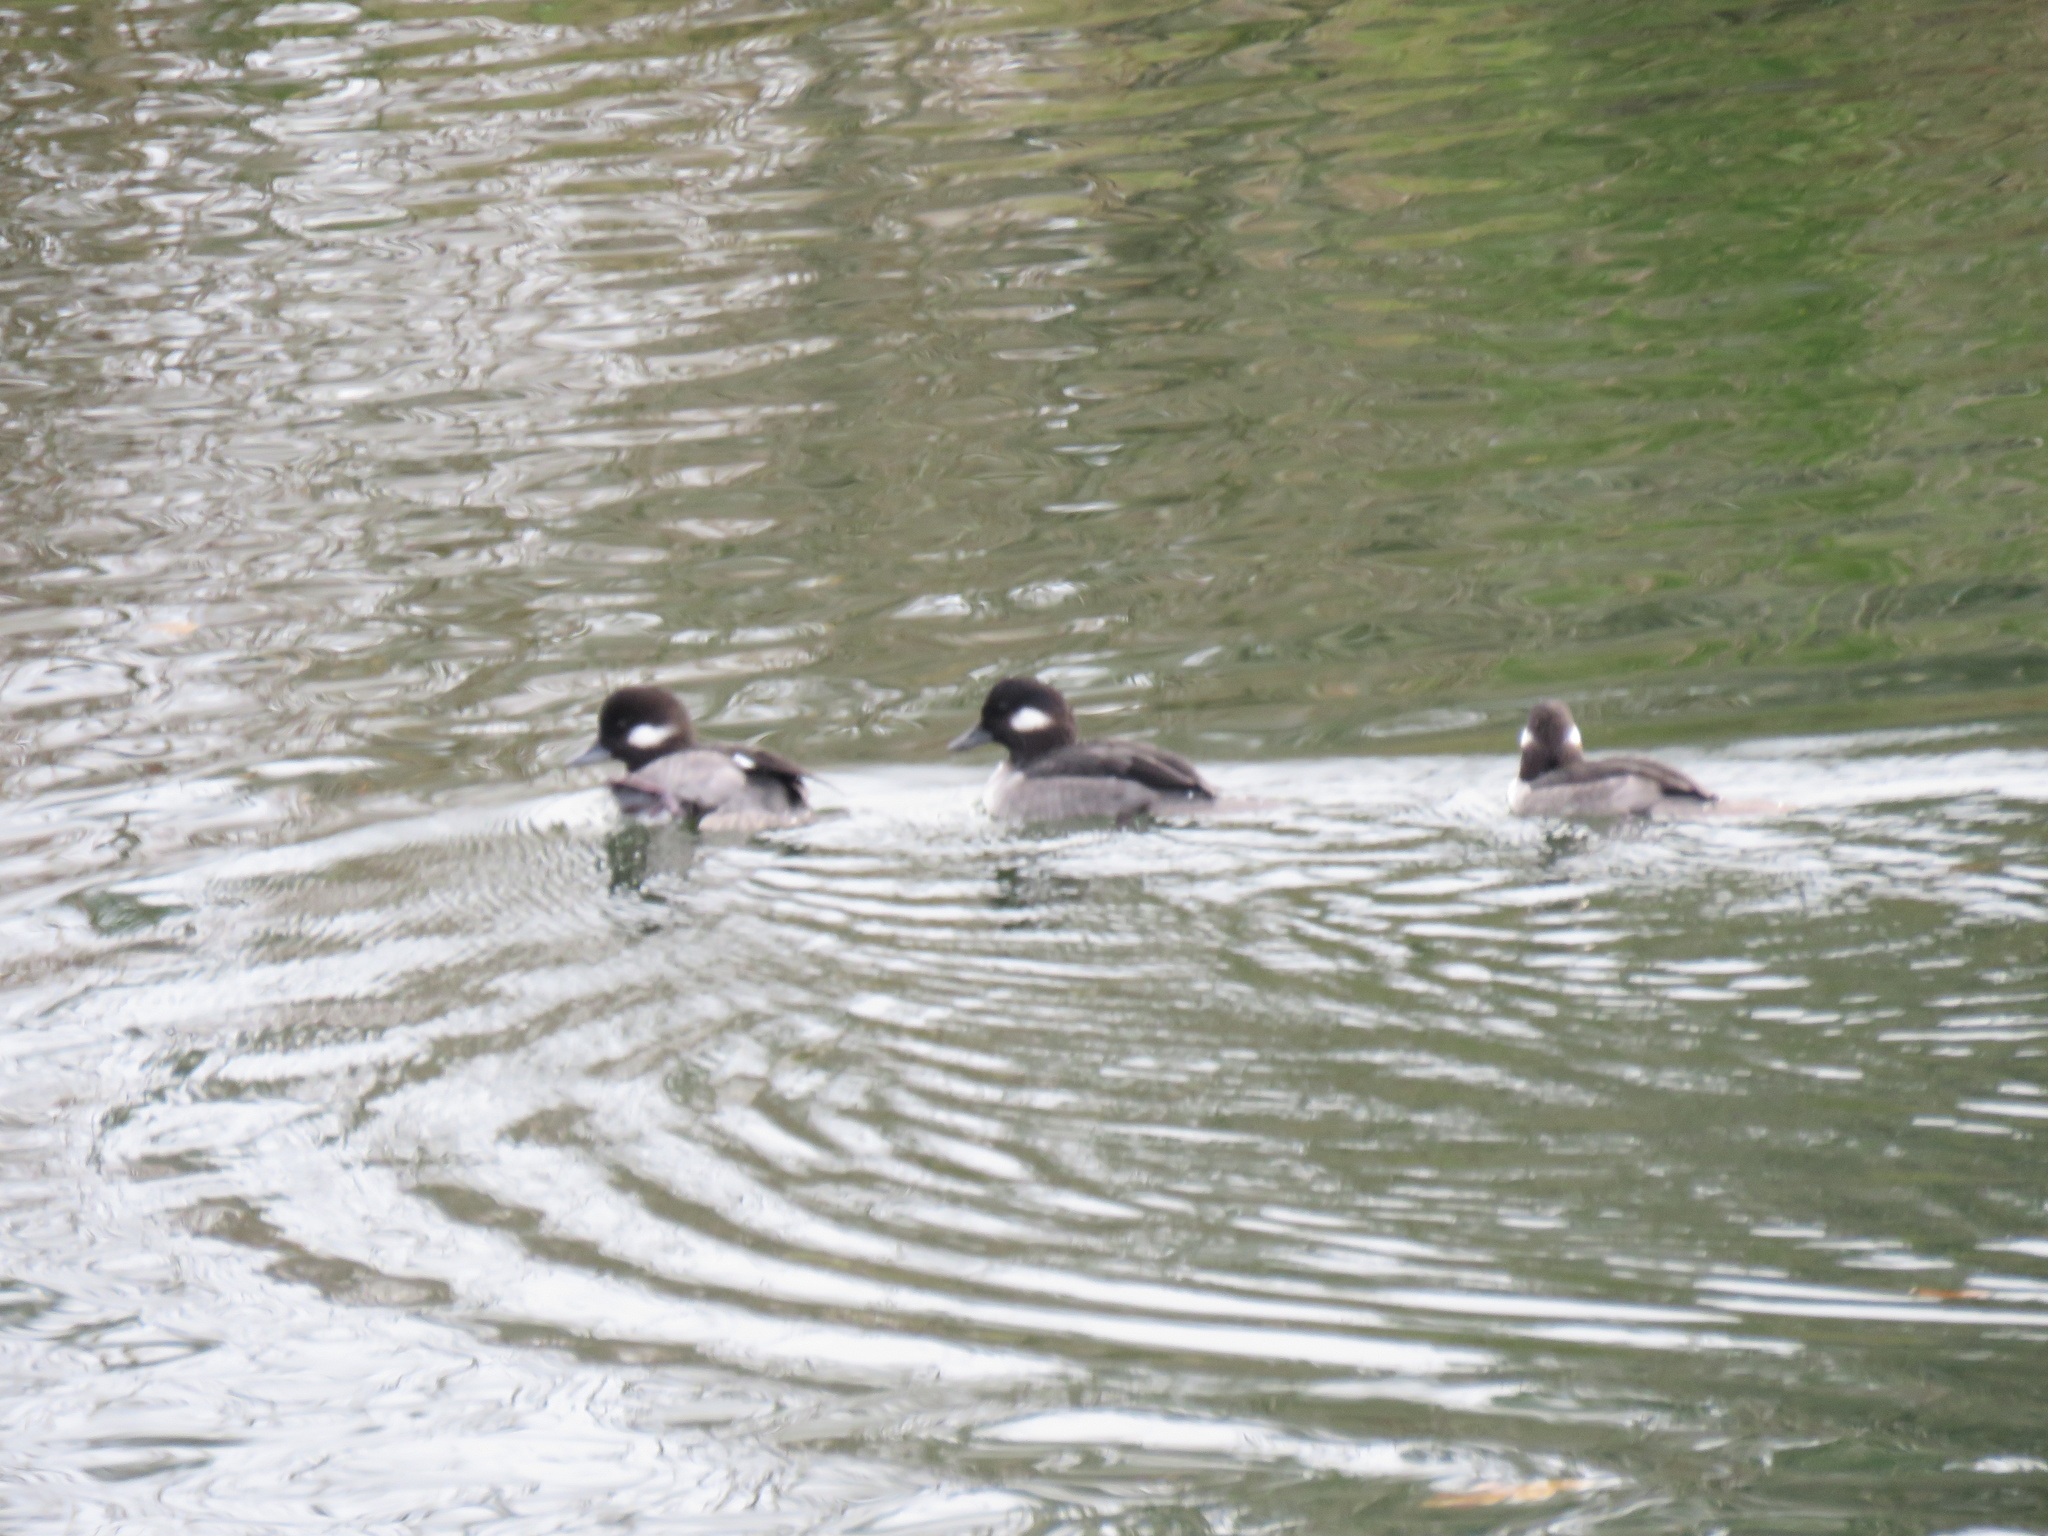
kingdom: Animalia
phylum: Chordata
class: Aves
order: Anseriformes
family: Anatidae
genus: Bucephala
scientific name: Bucephala albeola
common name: Bufflehead
